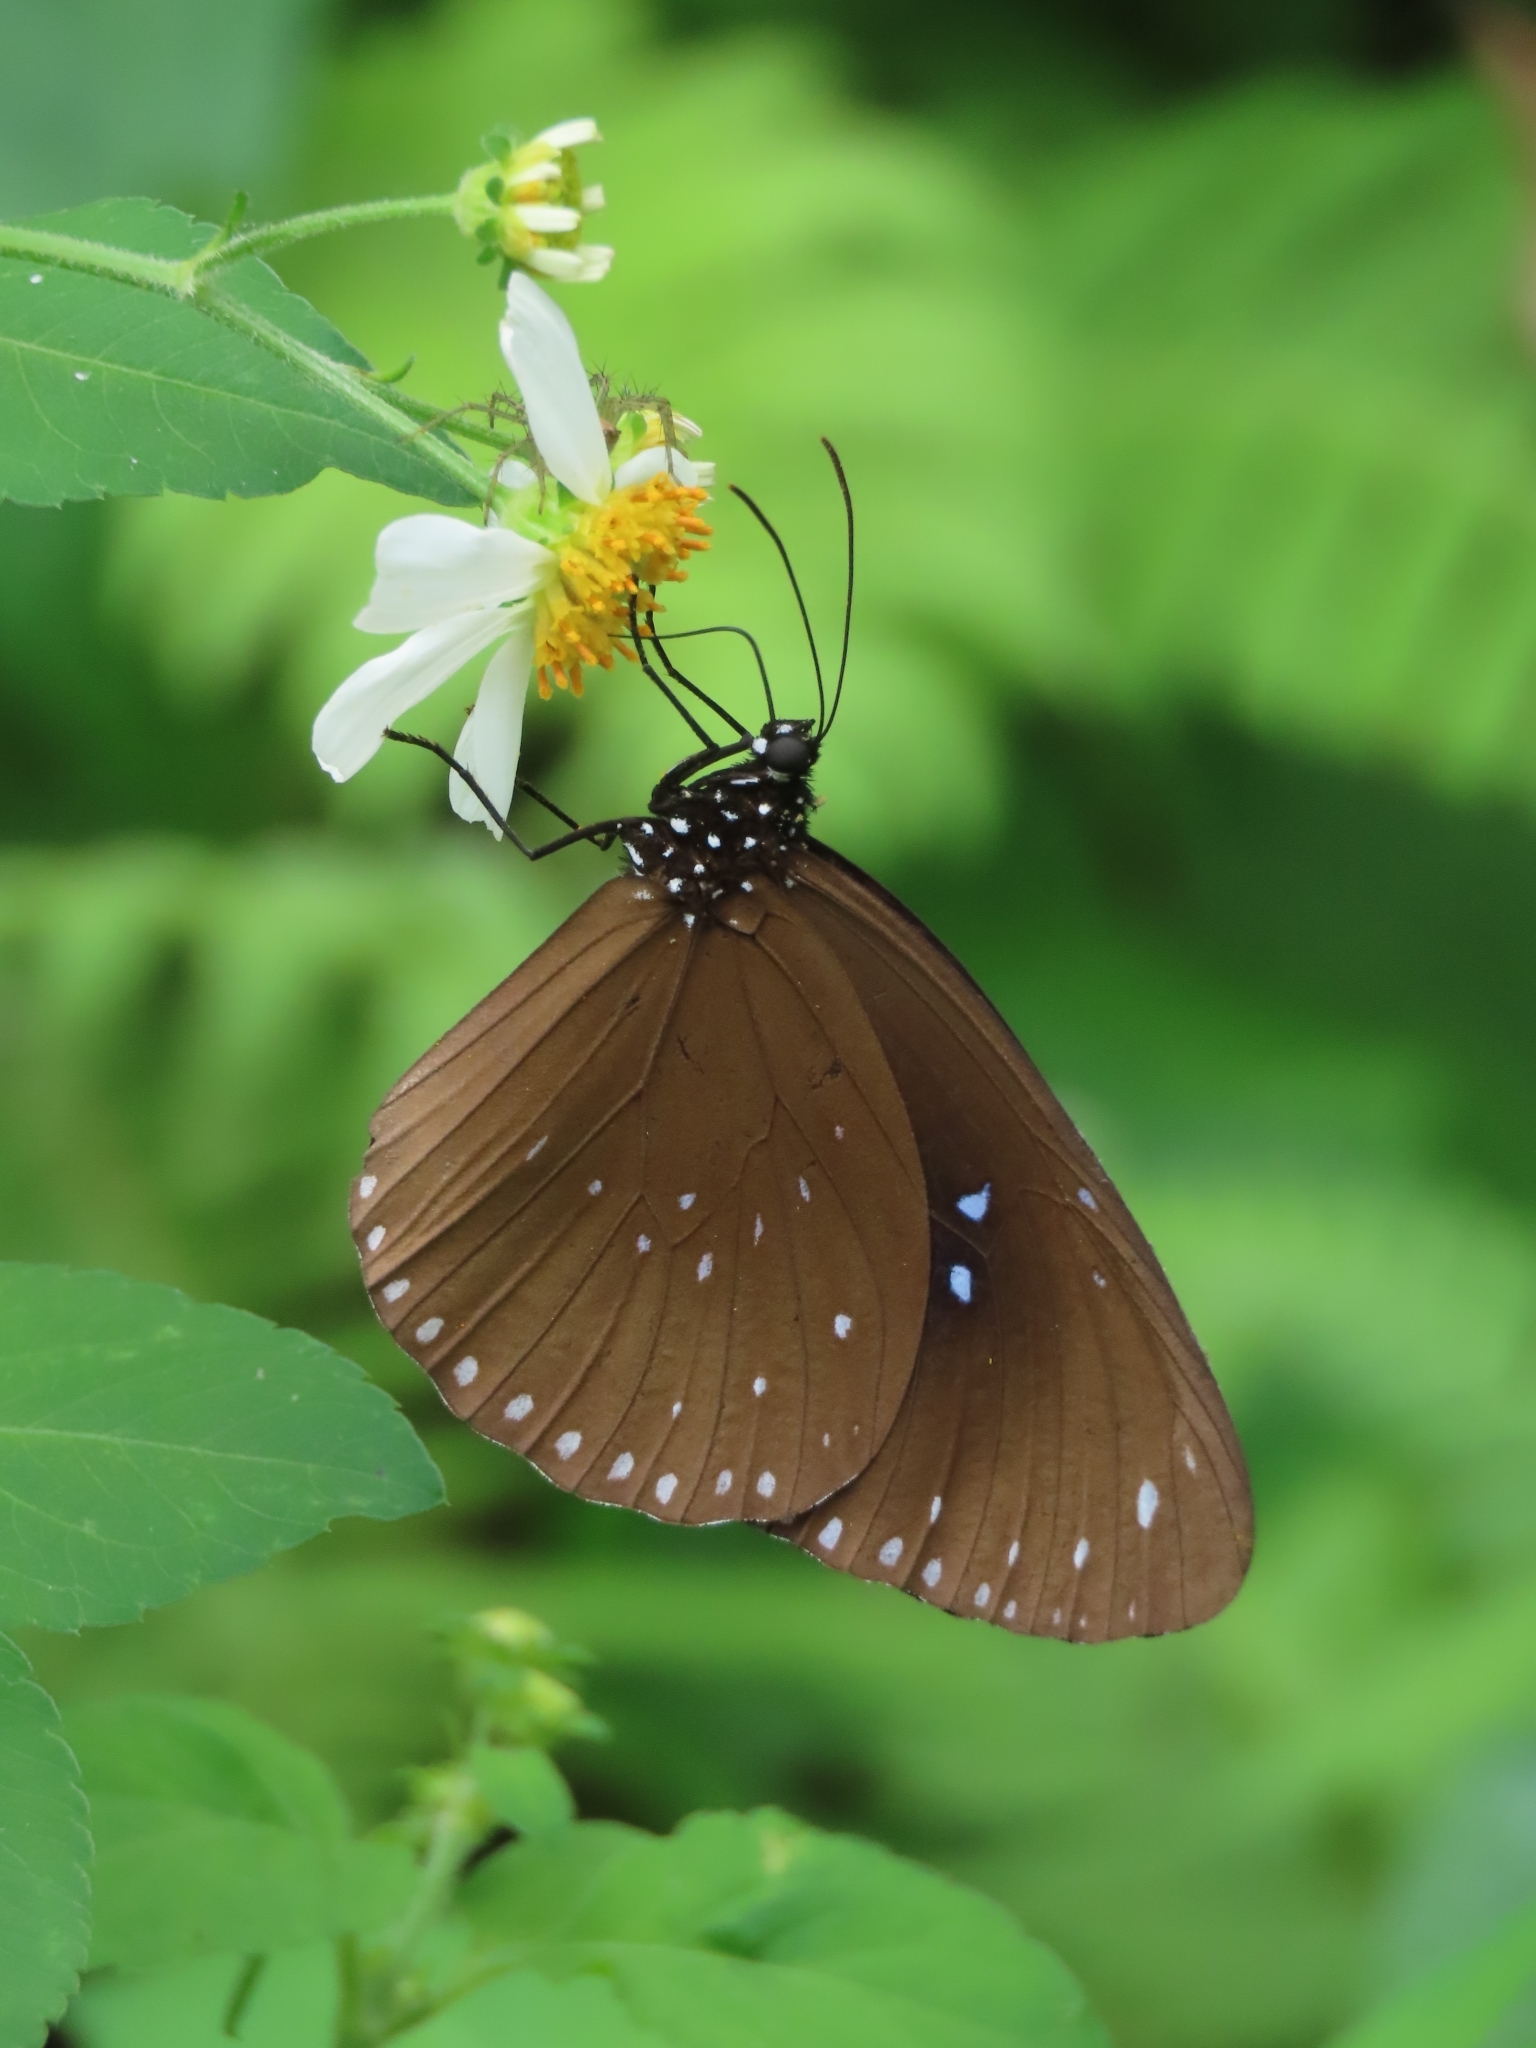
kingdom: Animalia
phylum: Arthropoda
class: Insecta
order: Lepidoptera
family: Nymphalidae
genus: Euploea
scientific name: Euploea sylvester
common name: Double-branded crow butterfly
